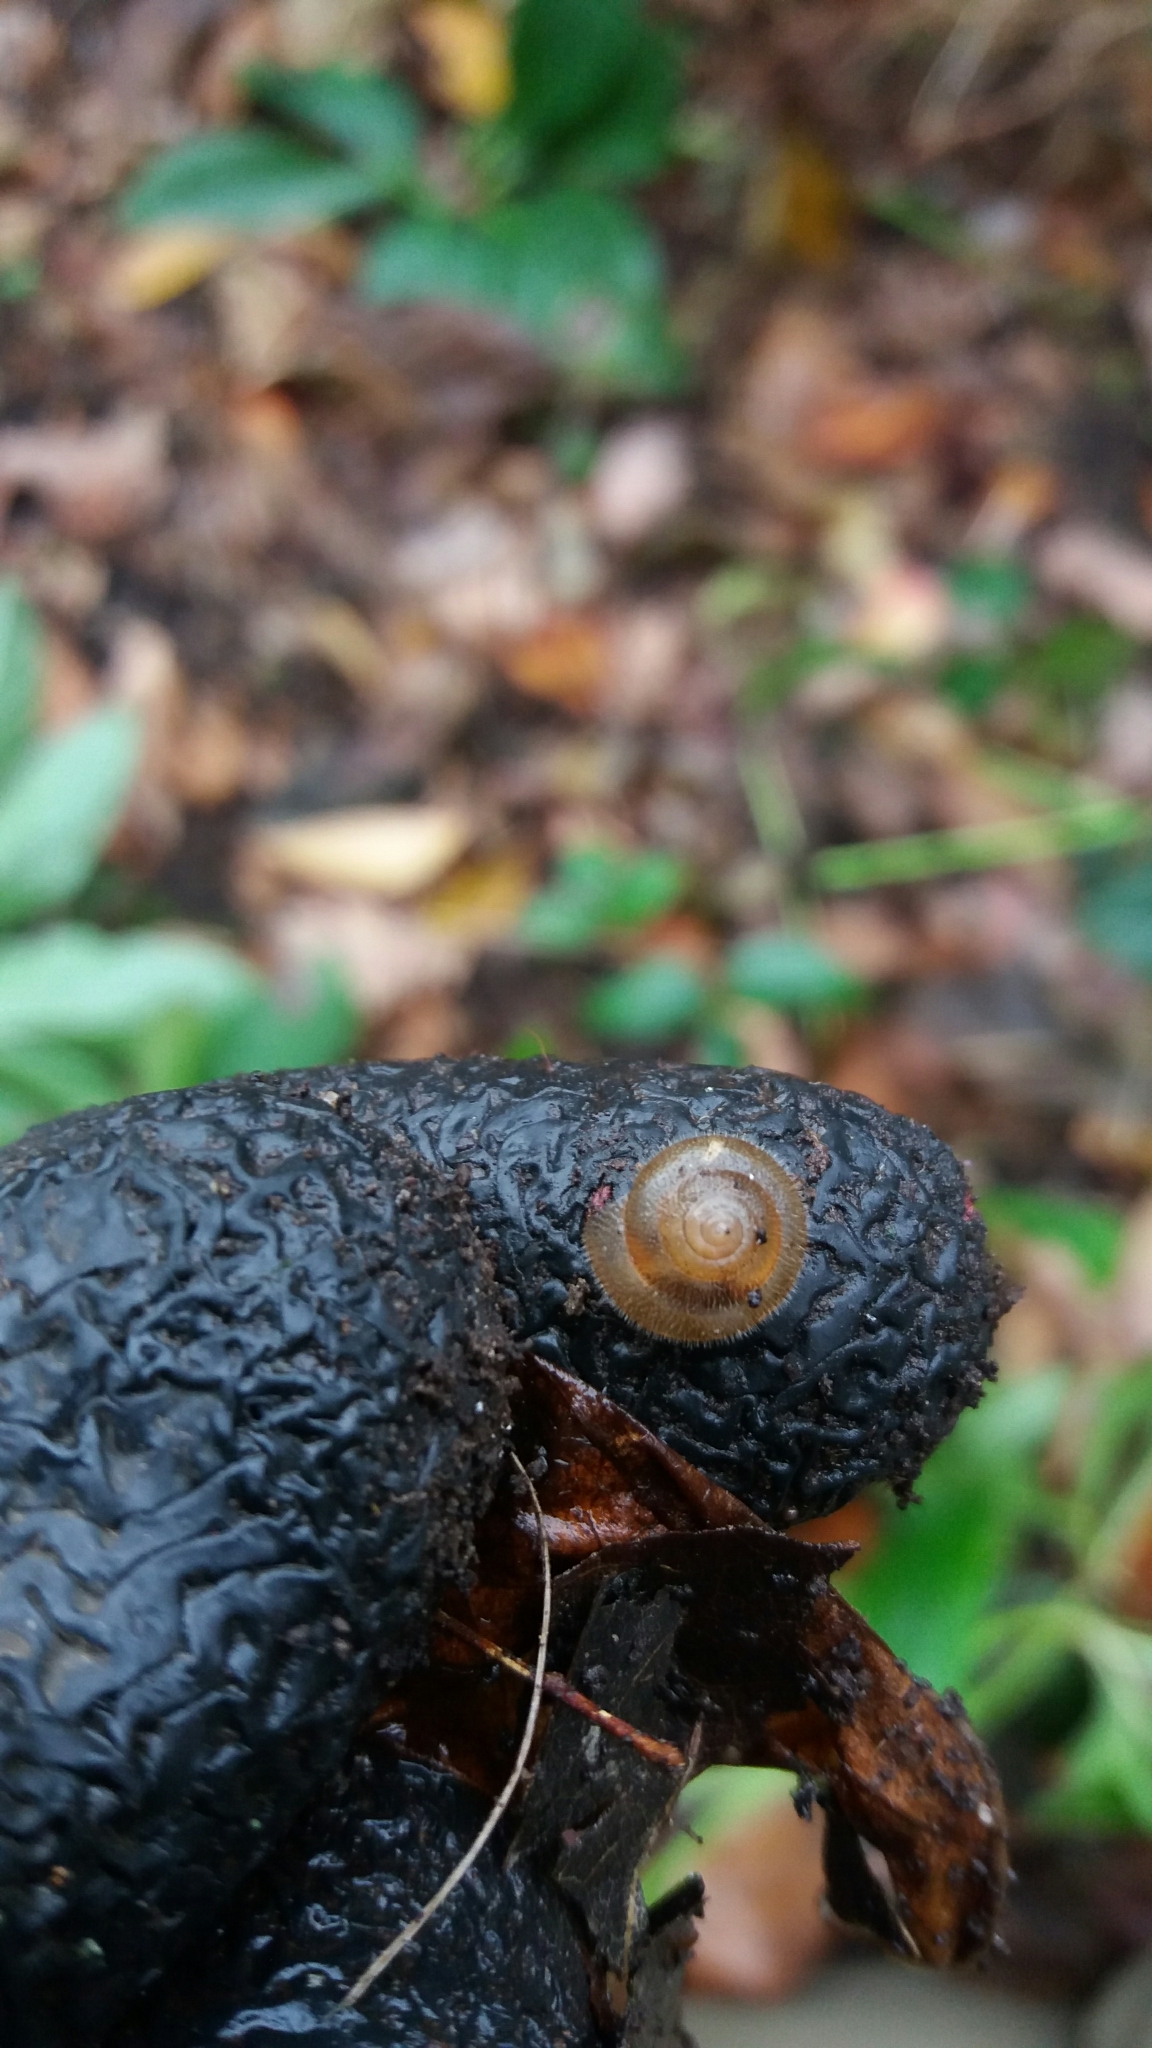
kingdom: Animalia
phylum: Mollusca
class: Gastropoda
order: Stylommatophora
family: Hygromiidae
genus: Trochulus
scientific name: Trochulus hispidus
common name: Hairy snail
